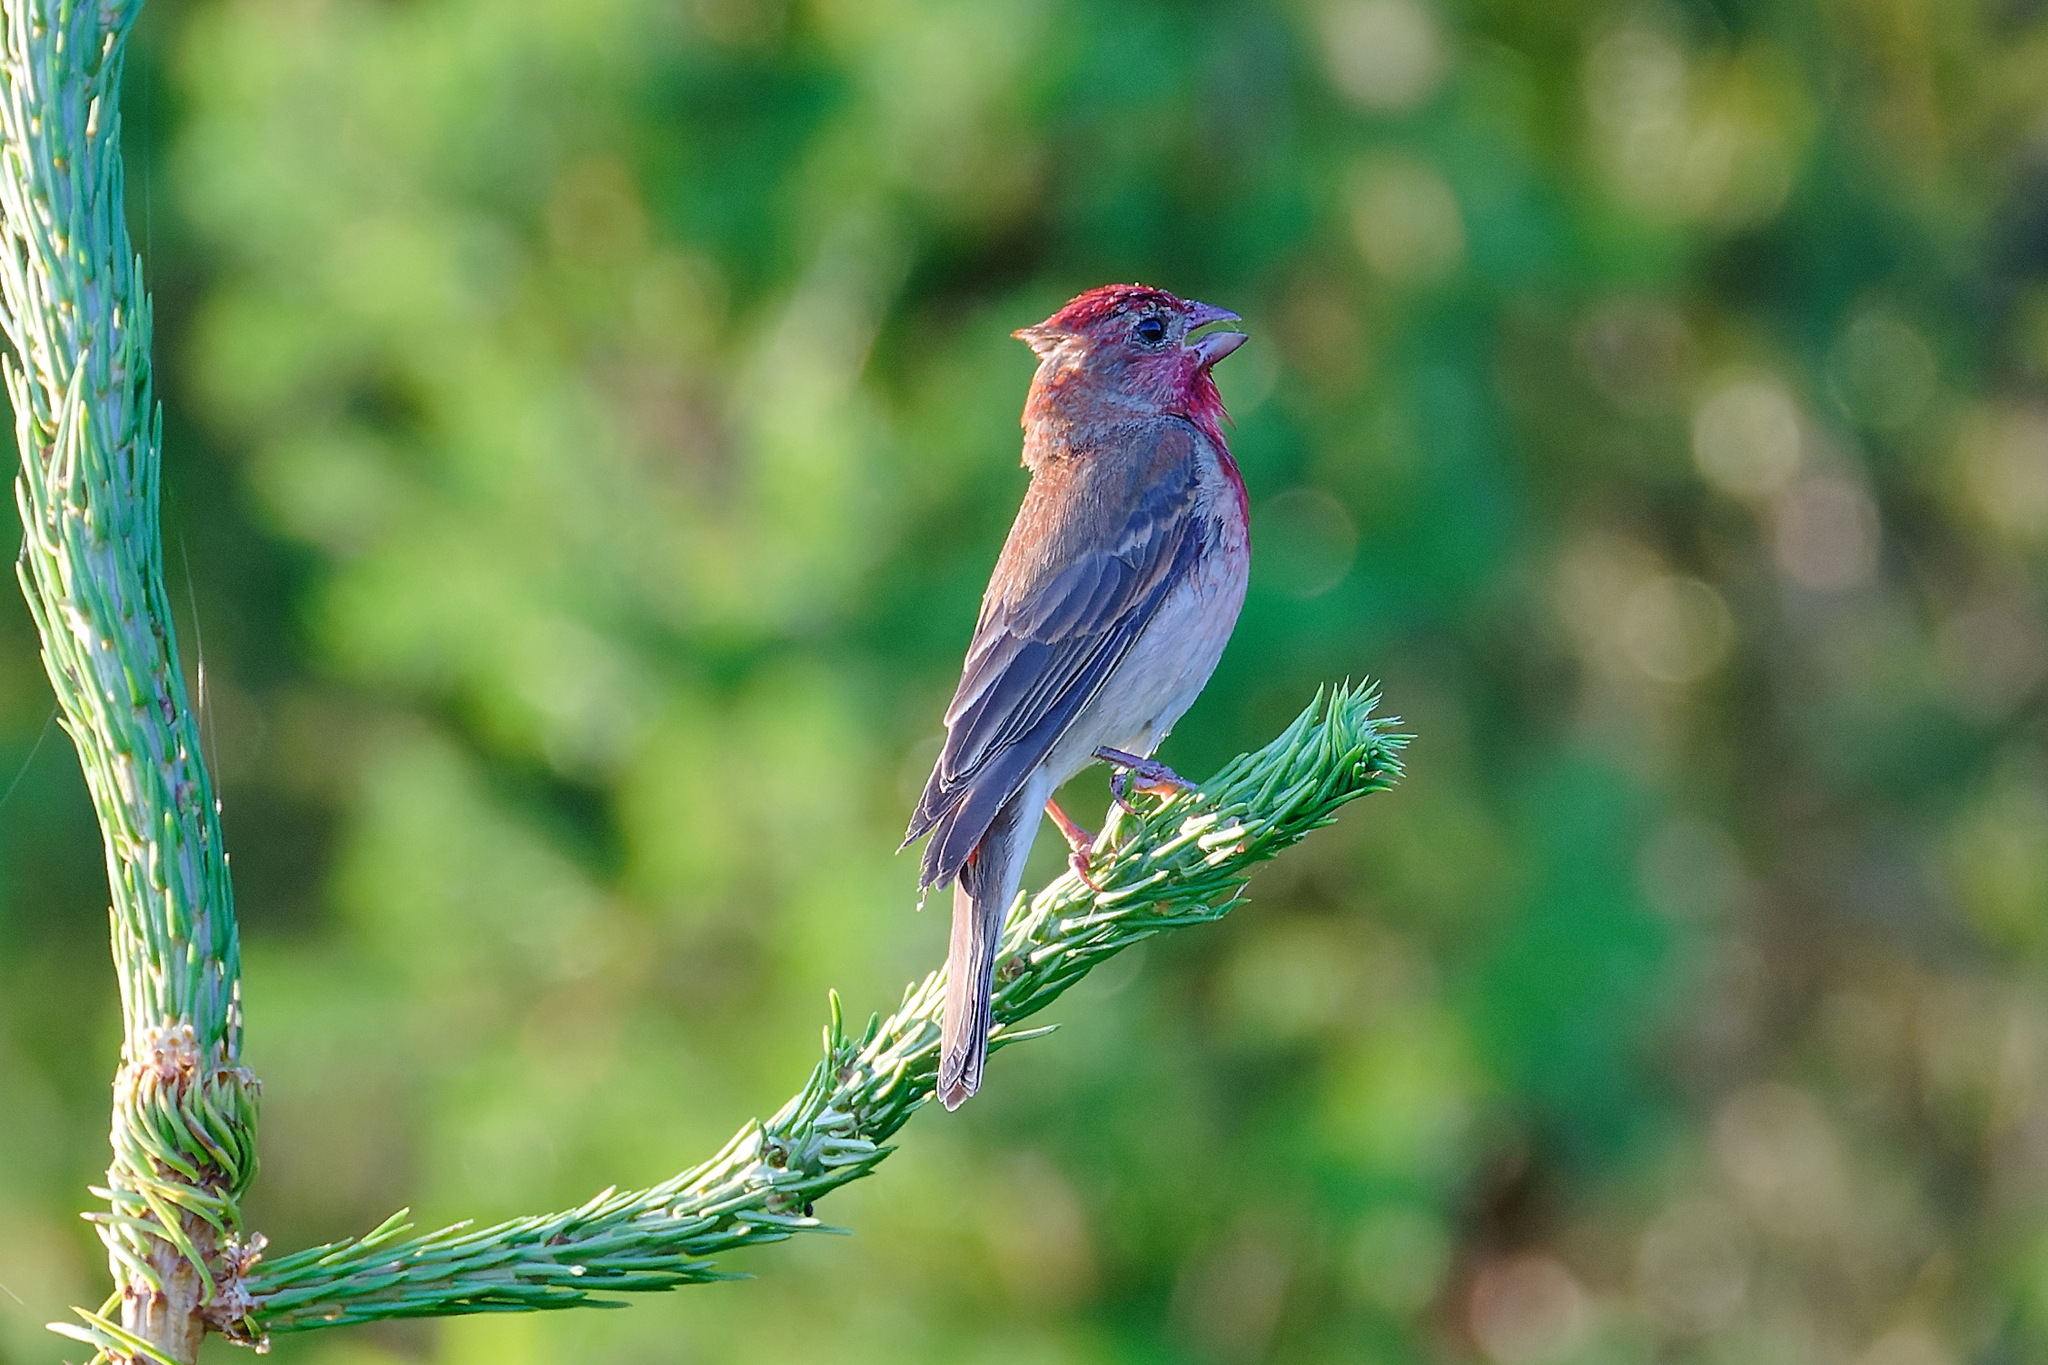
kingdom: Animalia
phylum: Chordata
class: Aves
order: Passeriformes
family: Fringillidae
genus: Carpodacus
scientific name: Carpodacus erythrinus
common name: Common rosefinch
